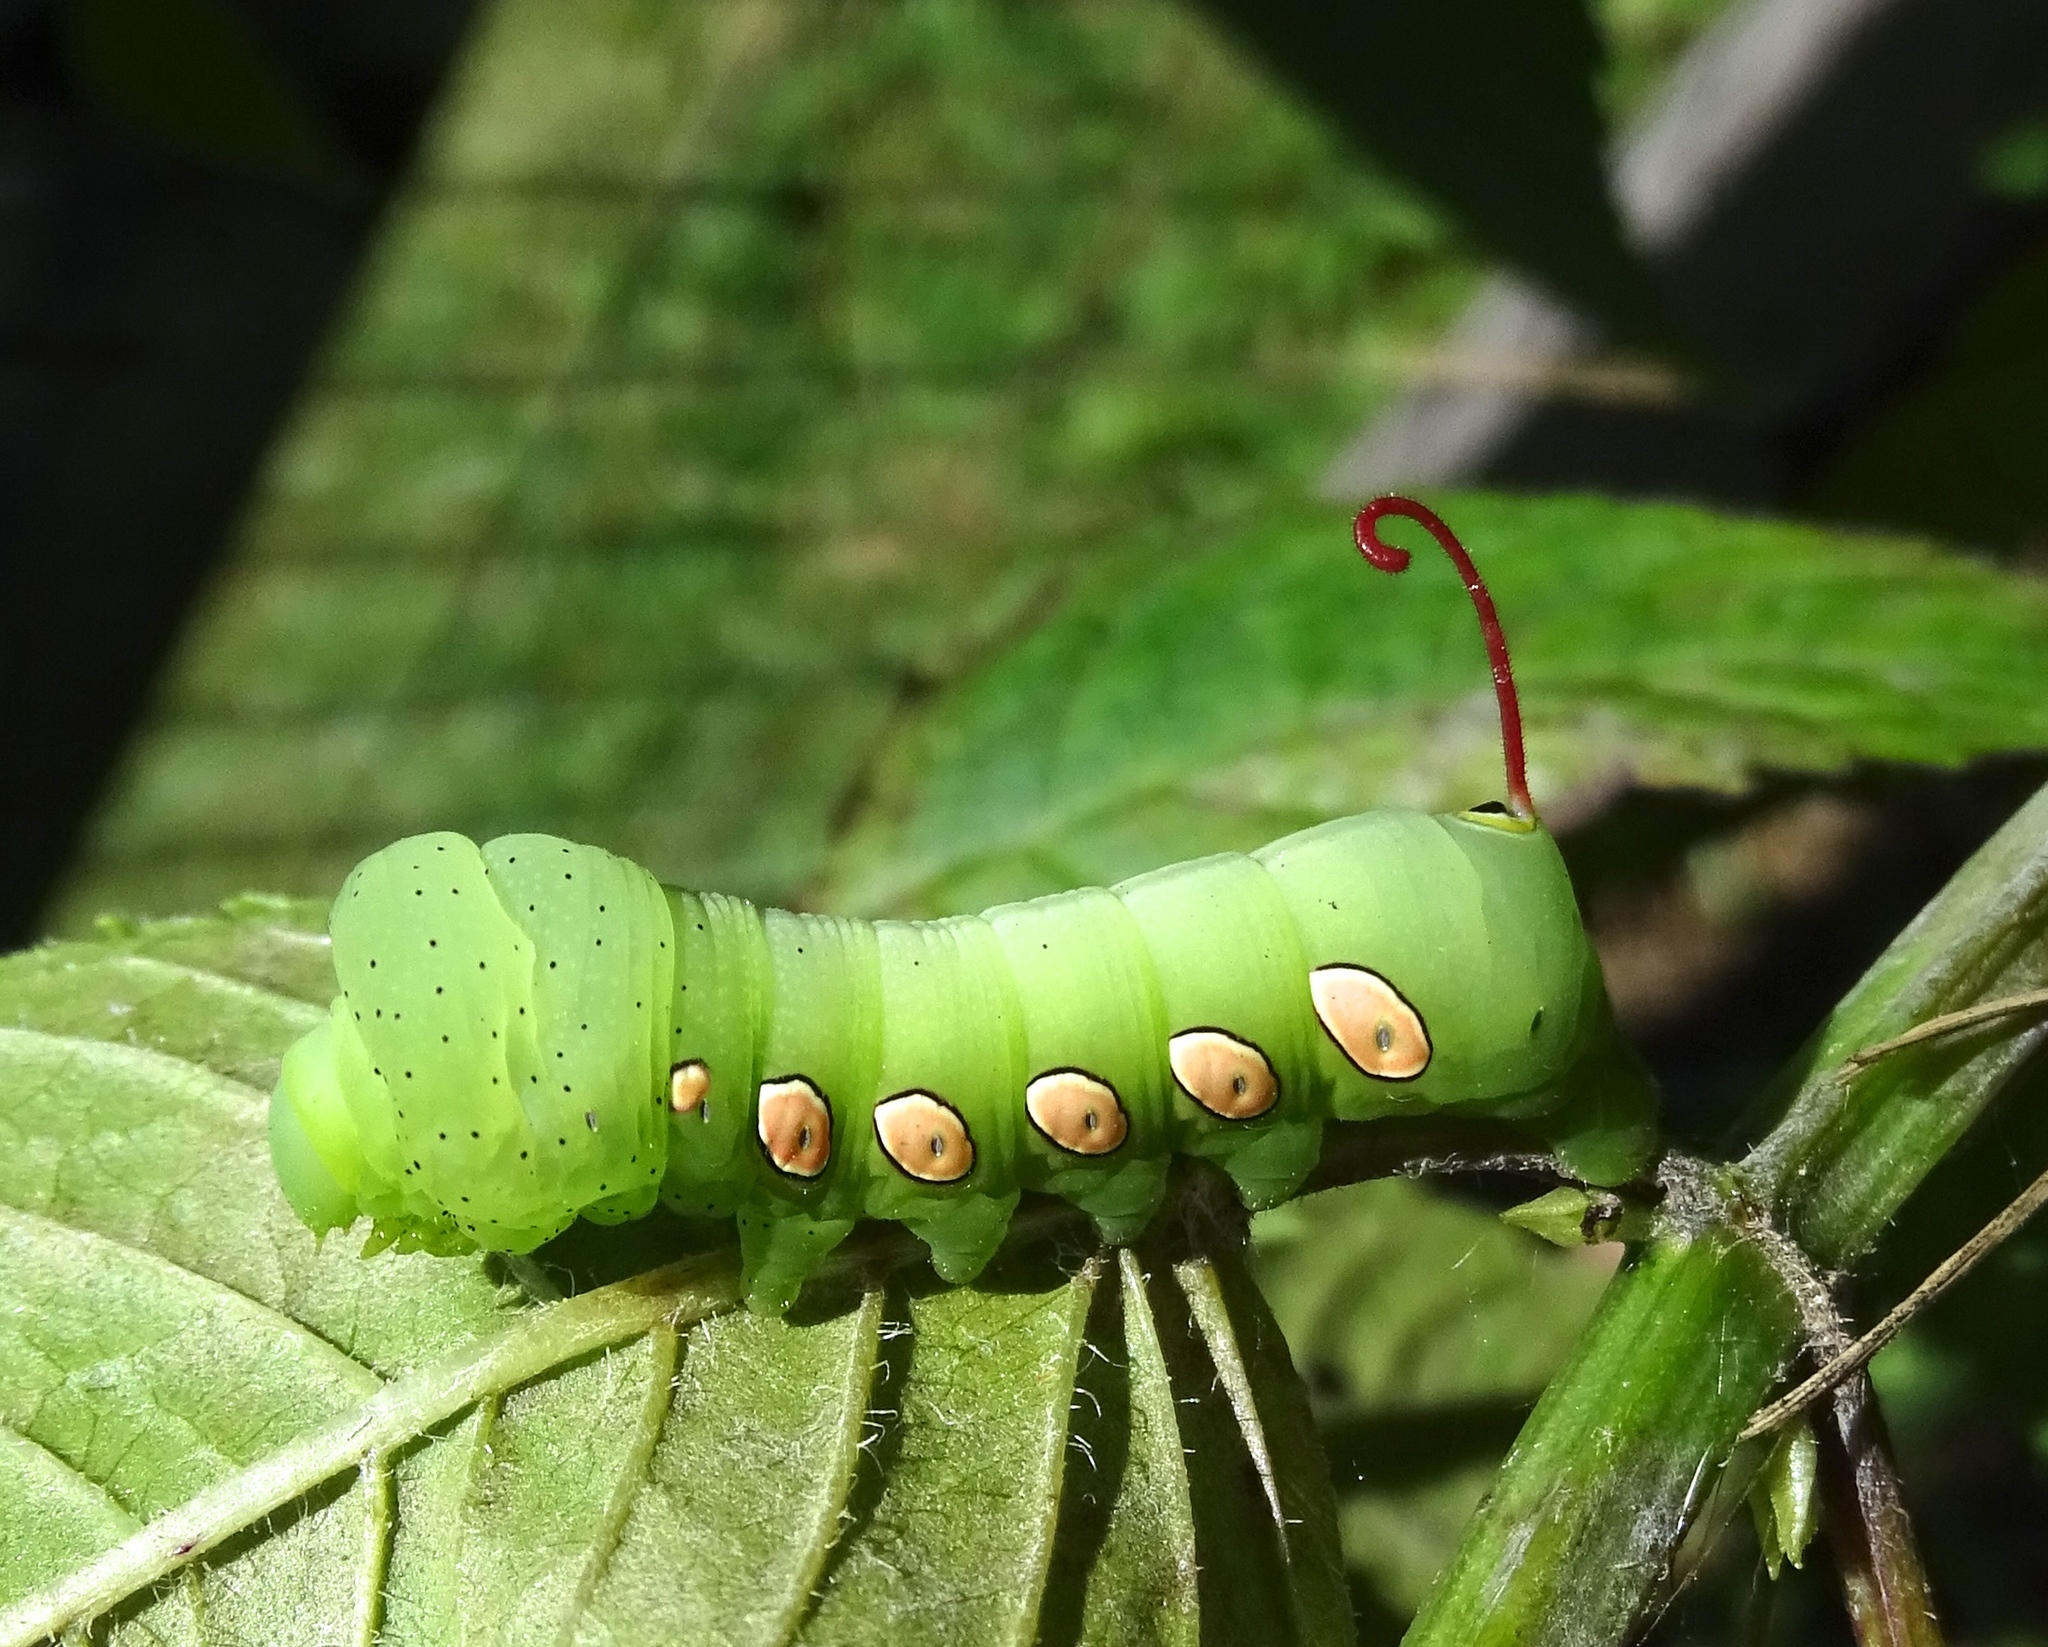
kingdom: Animalia
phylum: Arthropoda
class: Insecta
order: Lepidoptera
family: Sphingidae
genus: Eumorpha
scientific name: Eumorpha pandorus
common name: Pandora sphinx
